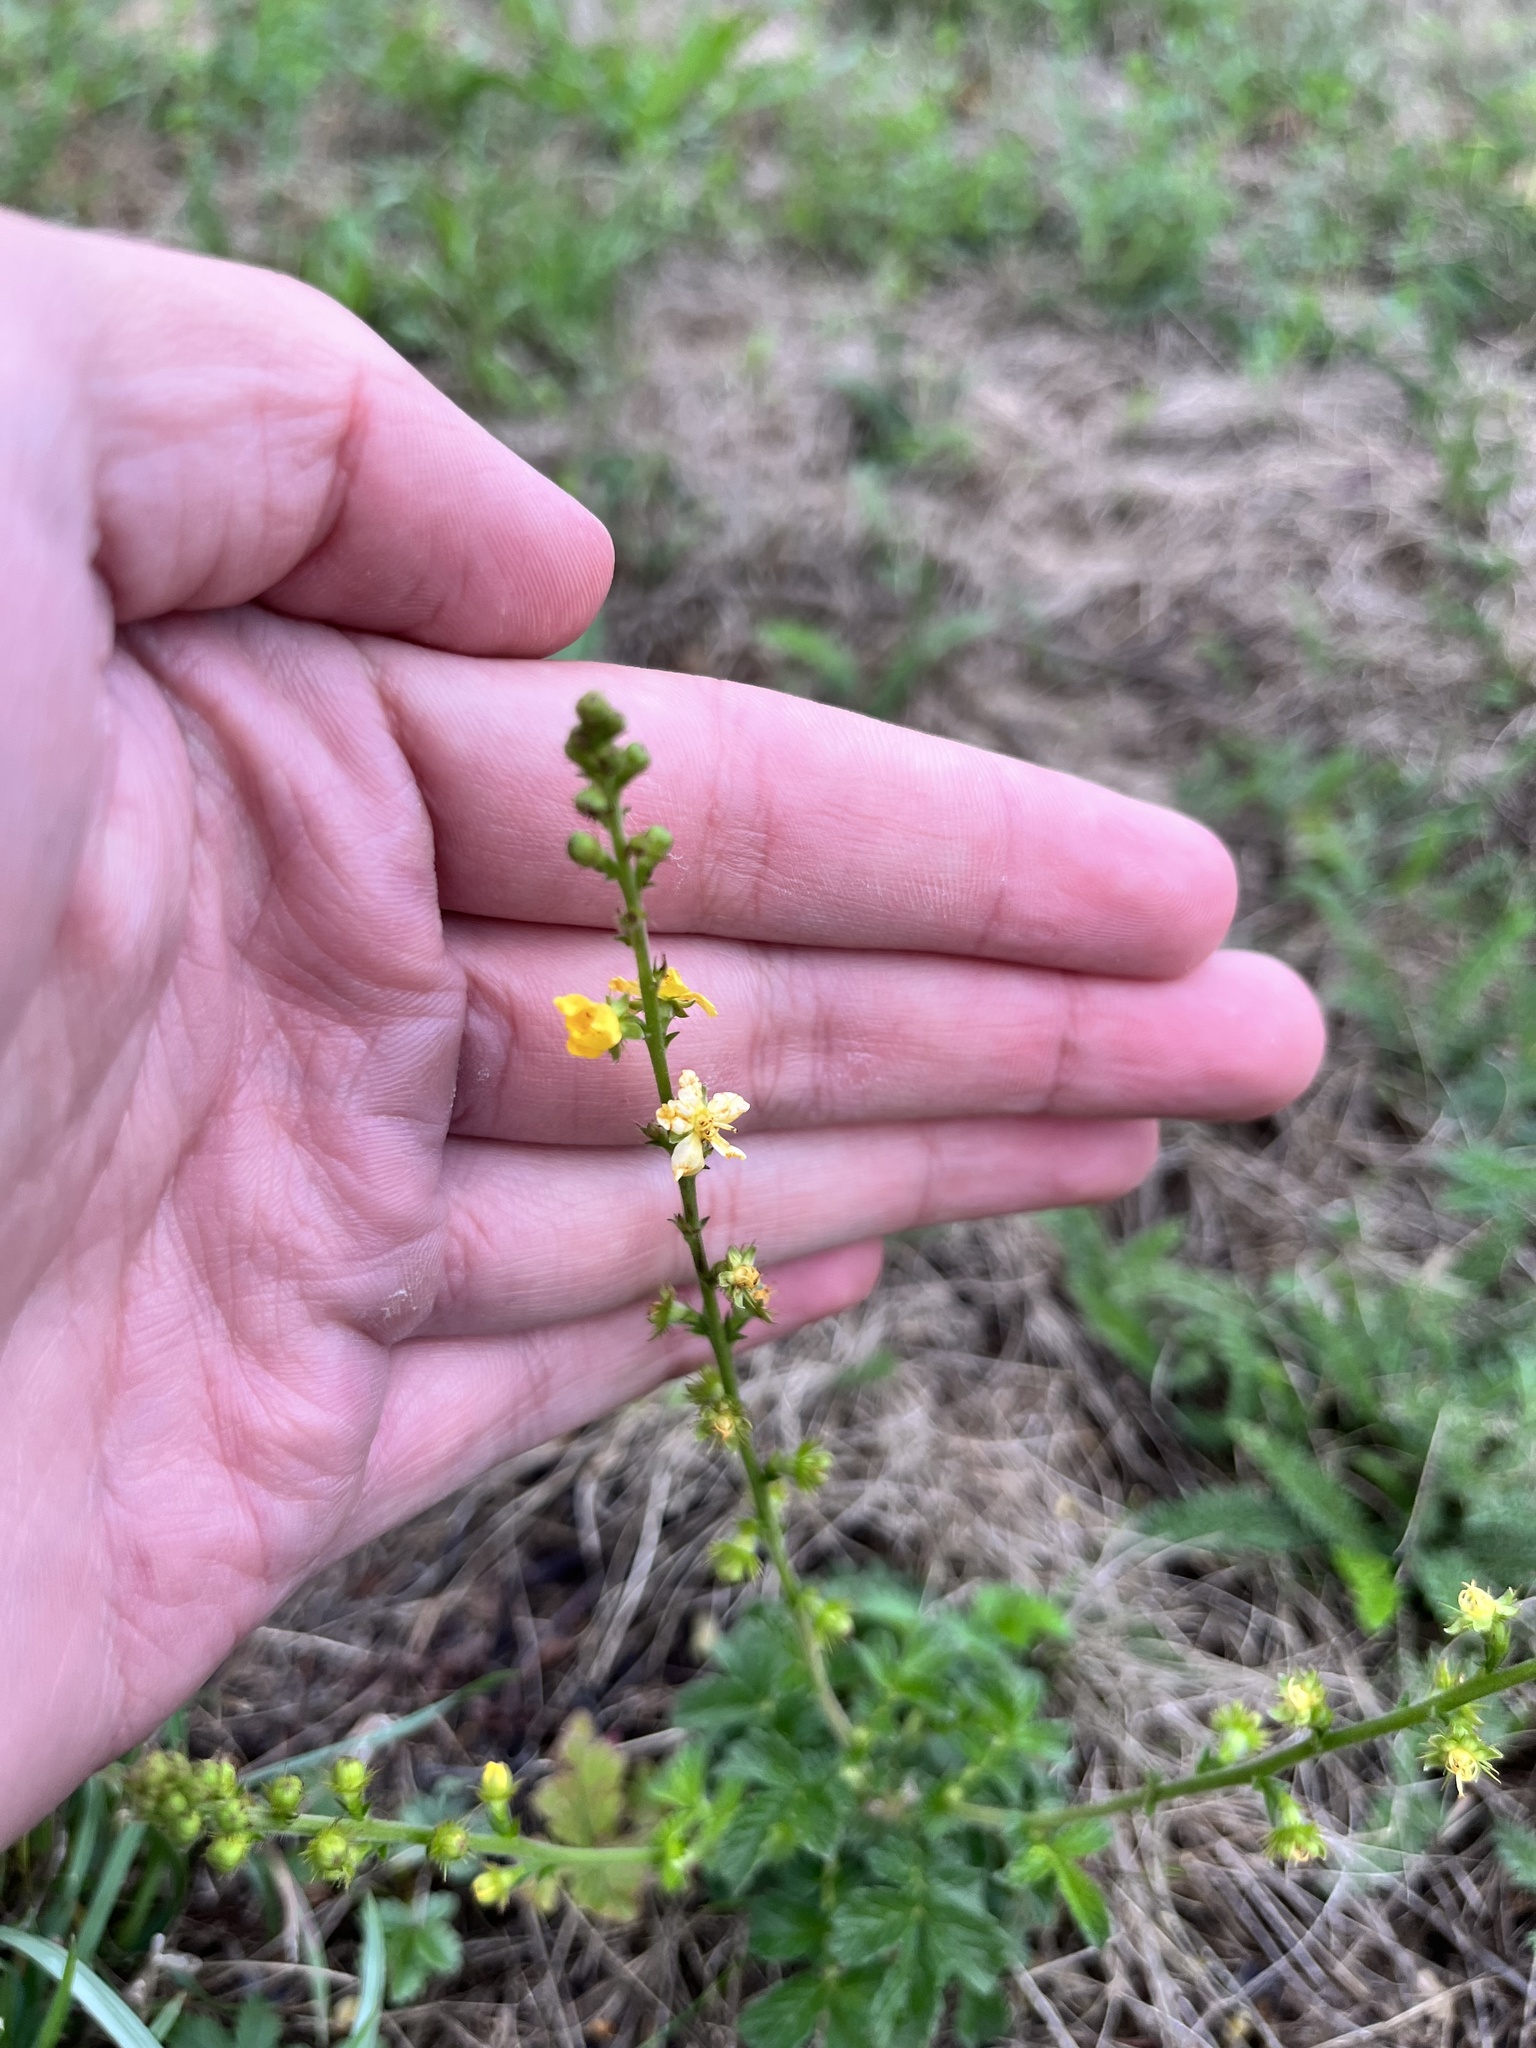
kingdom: Plantae
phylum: Tracheophyta
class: Magnoliopsida
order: Rosales
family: Rosaceae
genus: Agrimonia
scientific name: Agrimonia eupatoria
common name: Agrimony
